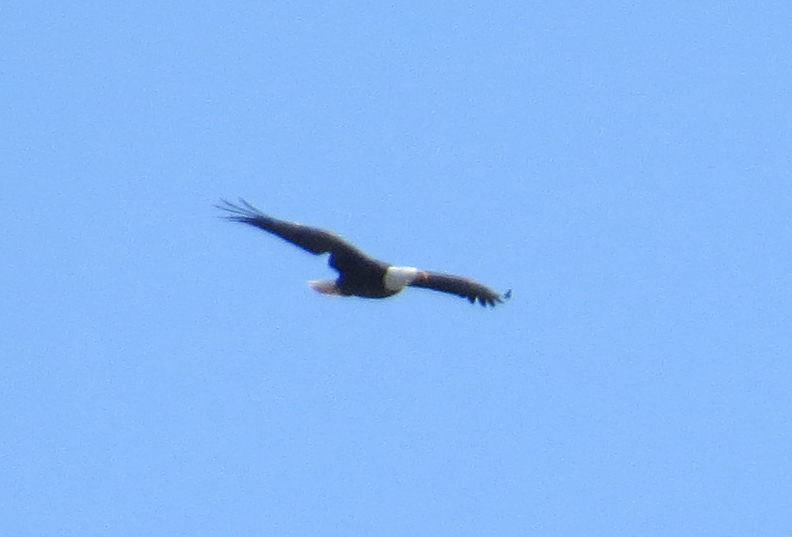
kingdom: Animalia
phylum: Chordata
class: Aves
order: Accipitriformes
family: Accipitridae
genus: Haliaeetus
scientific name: Haliaeetus leucocephalus
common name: Bald eagle
